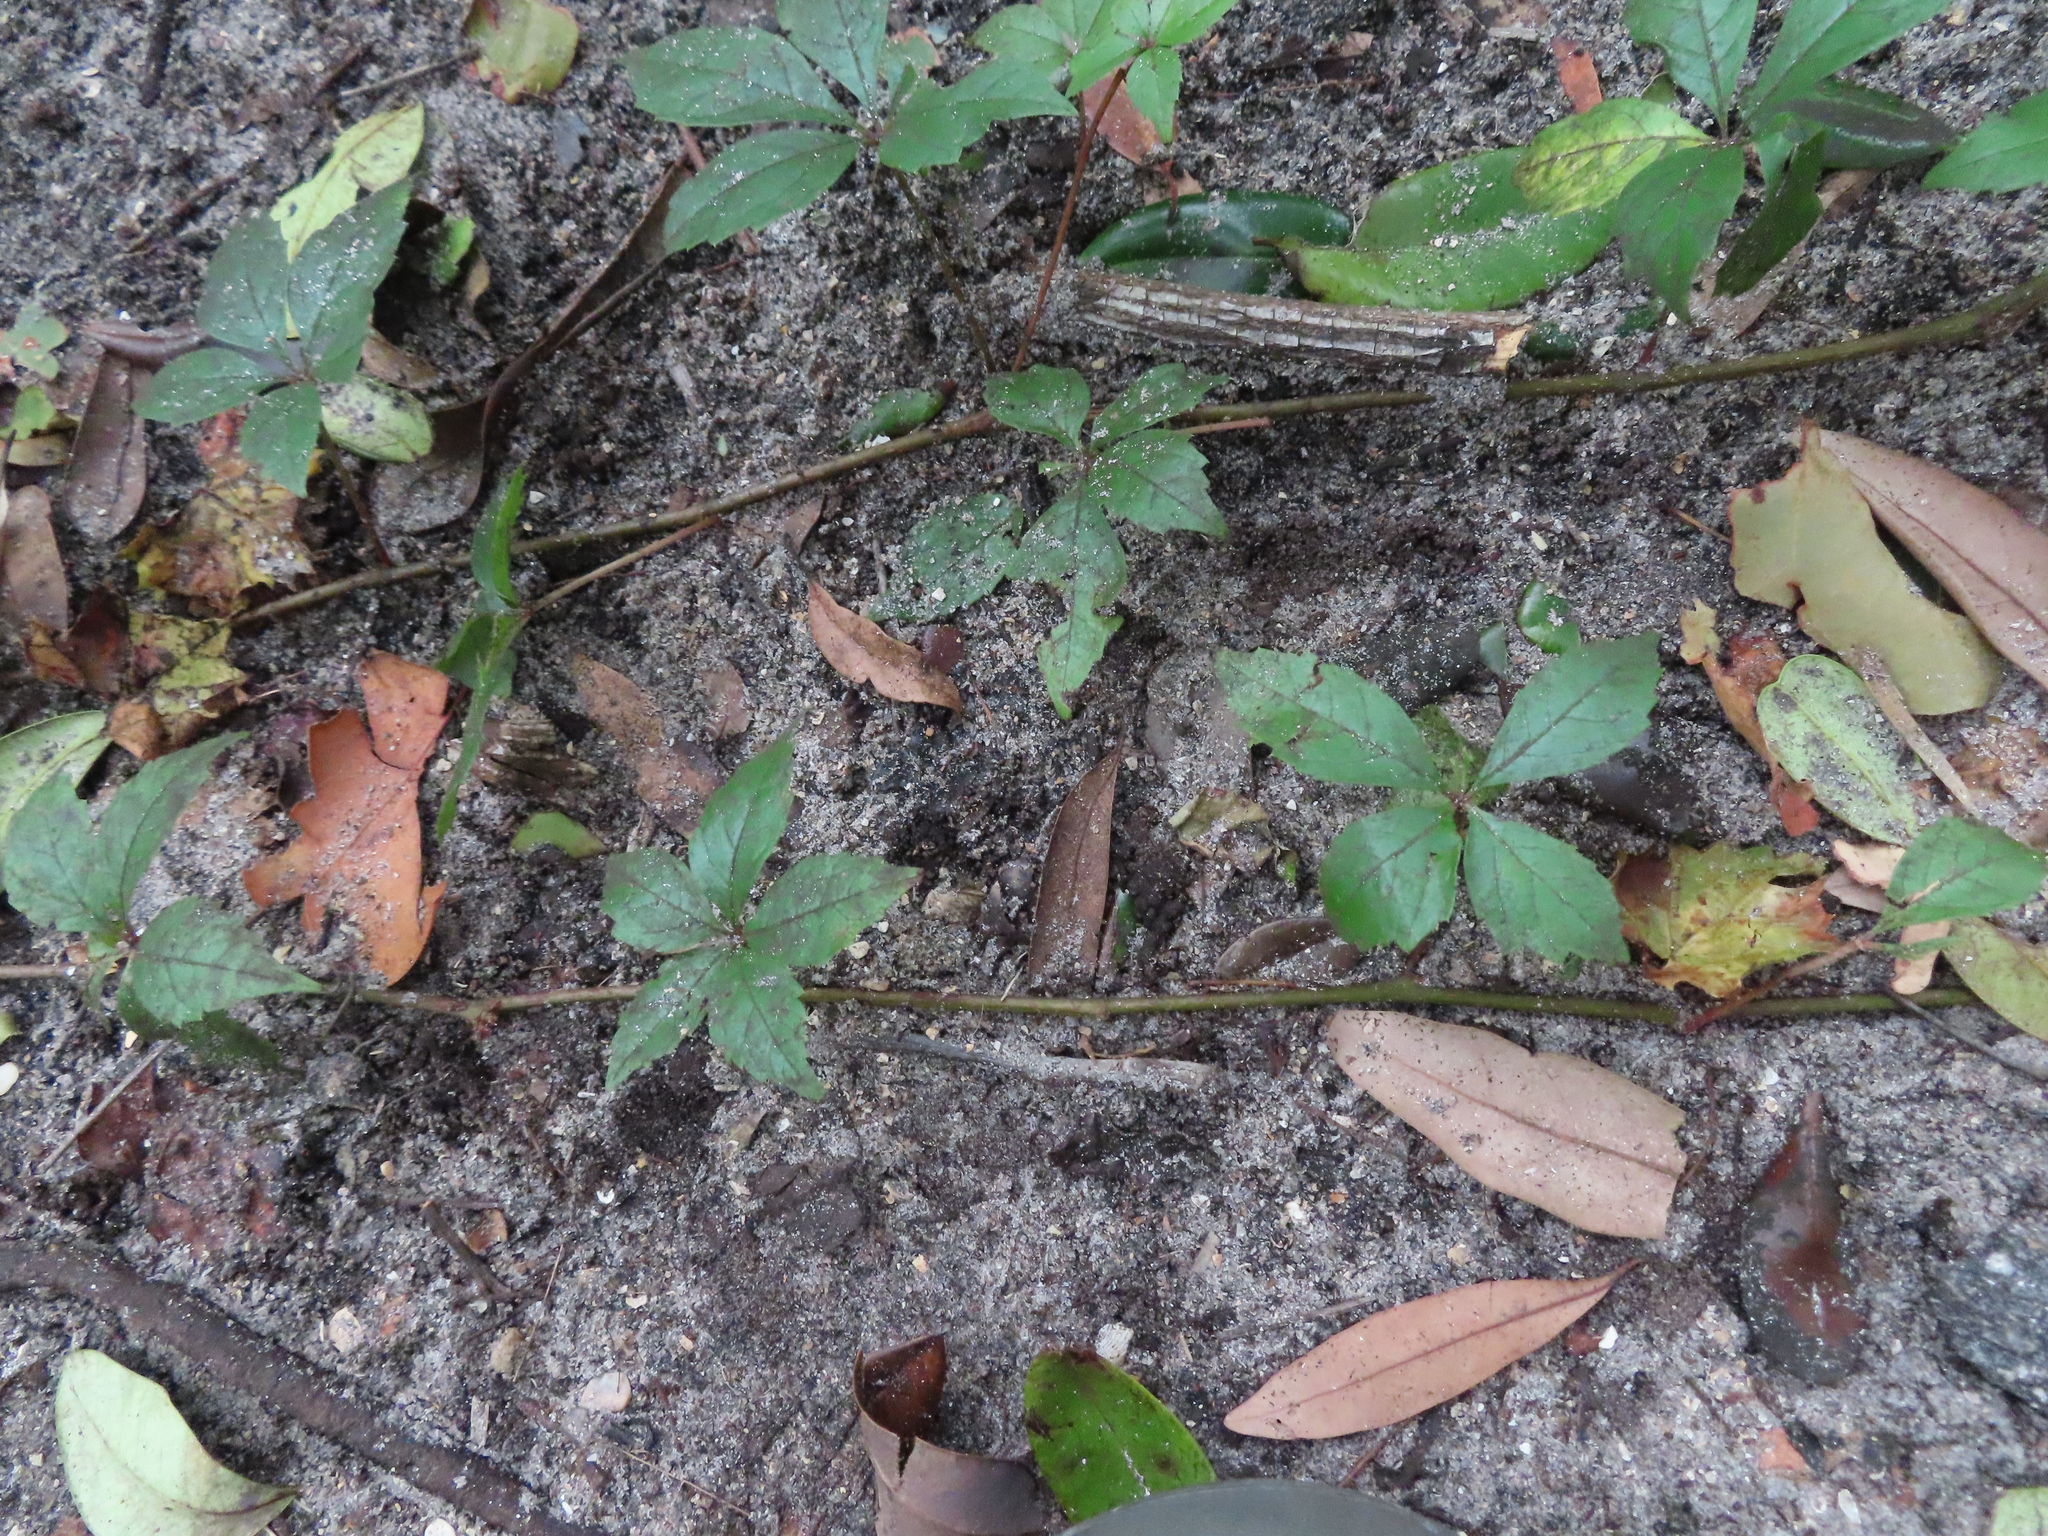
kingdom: Plantae
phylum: Tracheophyta
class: Magnoliopsida
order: Vitales
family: Vitaceae
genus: Parthenocissus
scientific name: Parthenocissus quinquefolia
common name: Virginia-creeper
